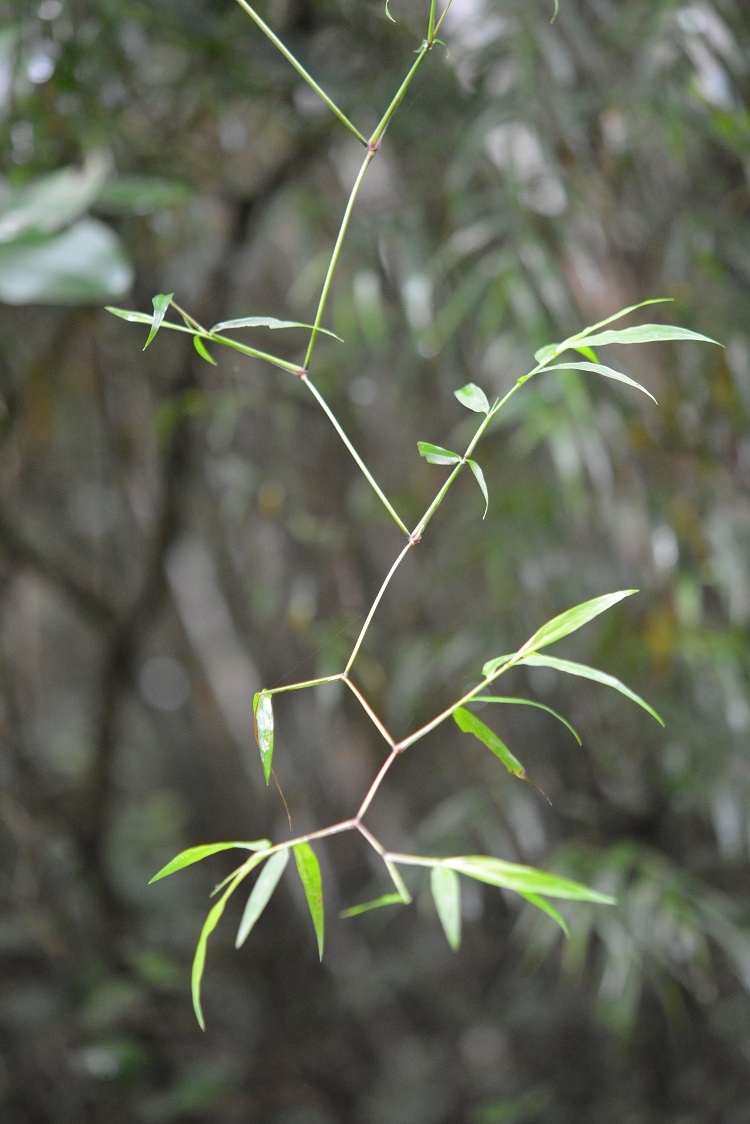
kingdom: Plantae
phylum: Tracheophyta
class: Liliopsida
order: Poales
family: Poaceae
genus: Lasiacis
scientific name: Lasiacis nigra
